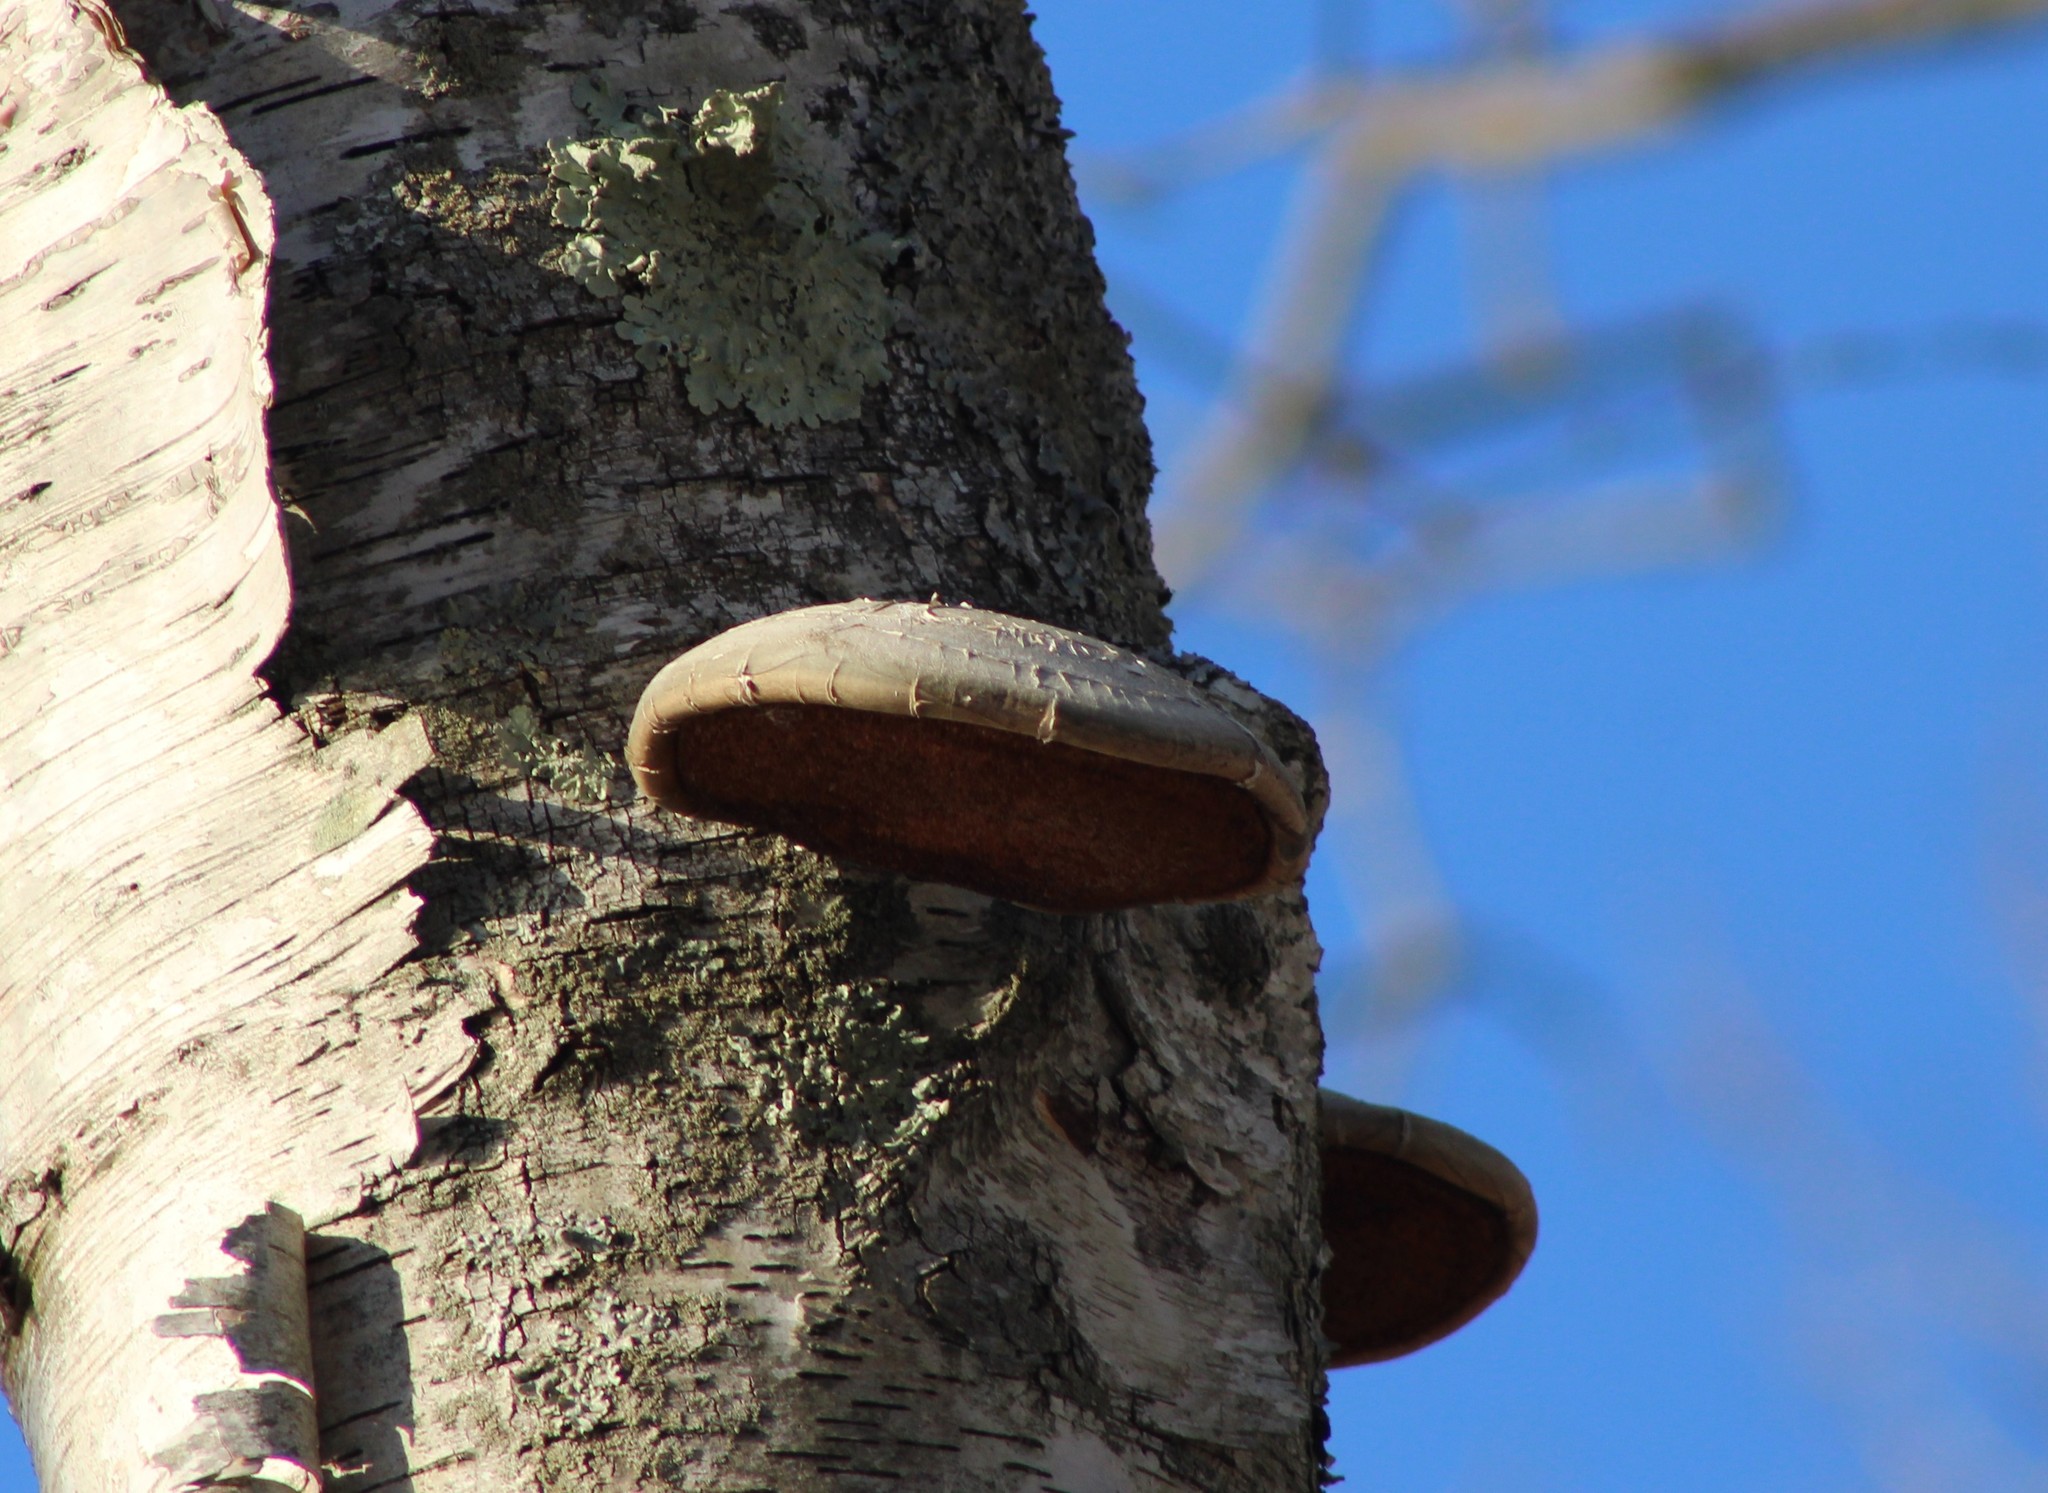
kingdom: Fungi
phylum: Basidiomycota
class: Agaricomycetes
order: Polyporales
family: Fomitopsidaceae
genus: Fomitopsis
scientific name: Fomitopsis betulina
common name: Birch polypore
